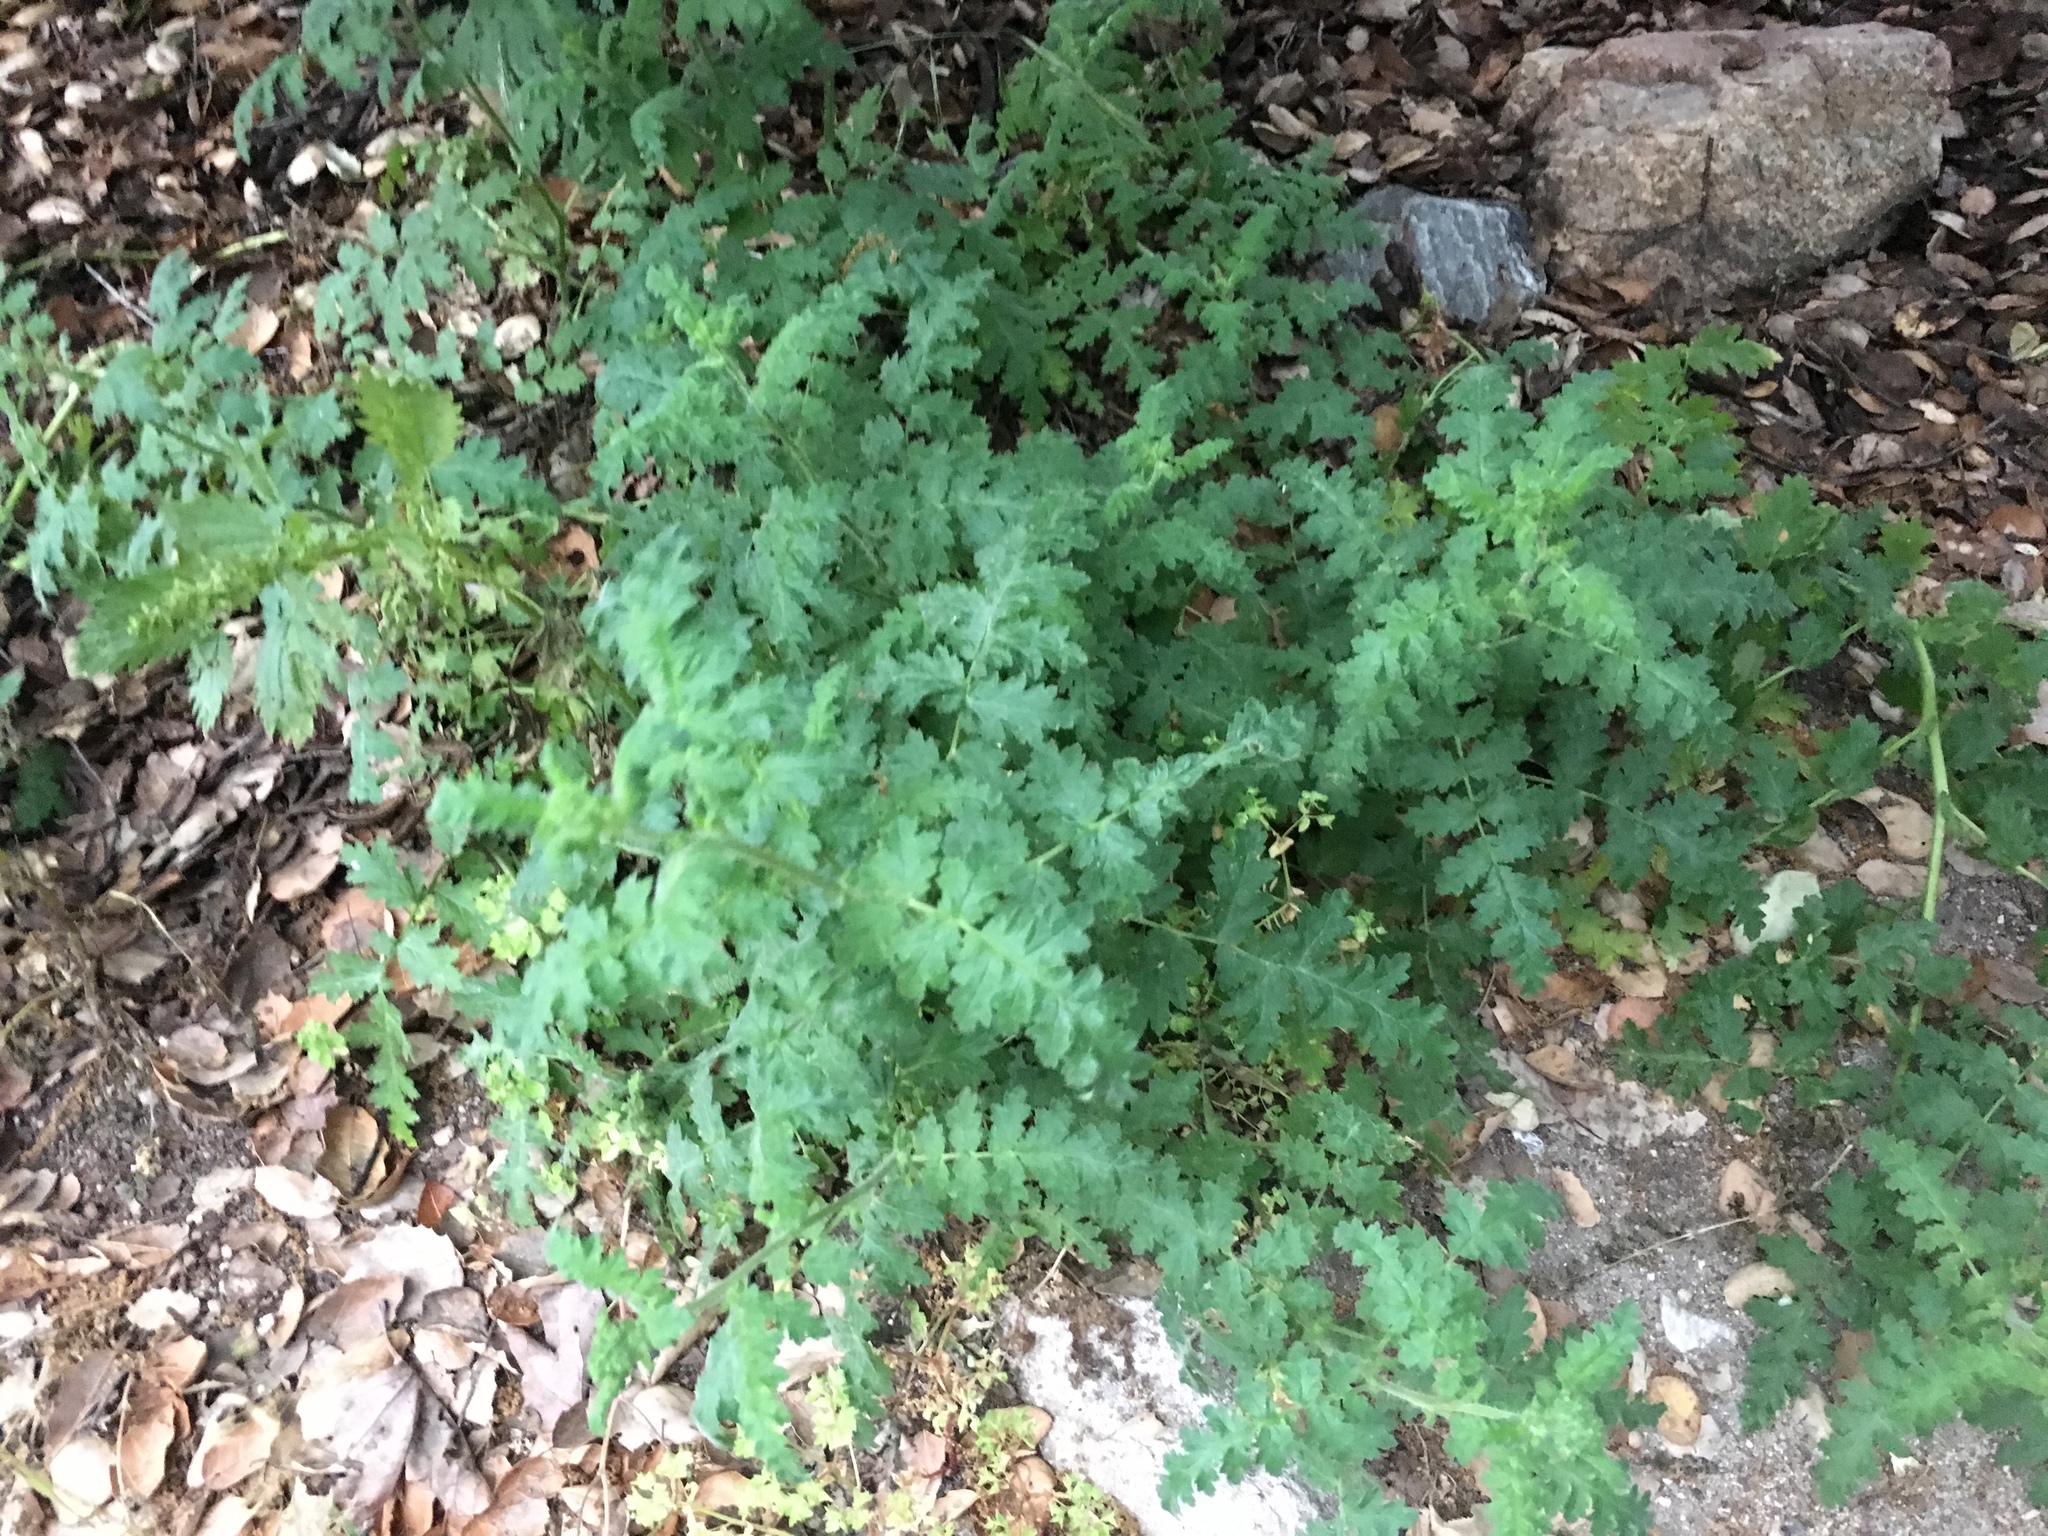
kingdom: Plantae
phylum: Tracheophyta
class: Magnoliopsida
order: Boraginales
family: Hydrophyllaceae
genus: Phacelia
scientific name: Phacelia
